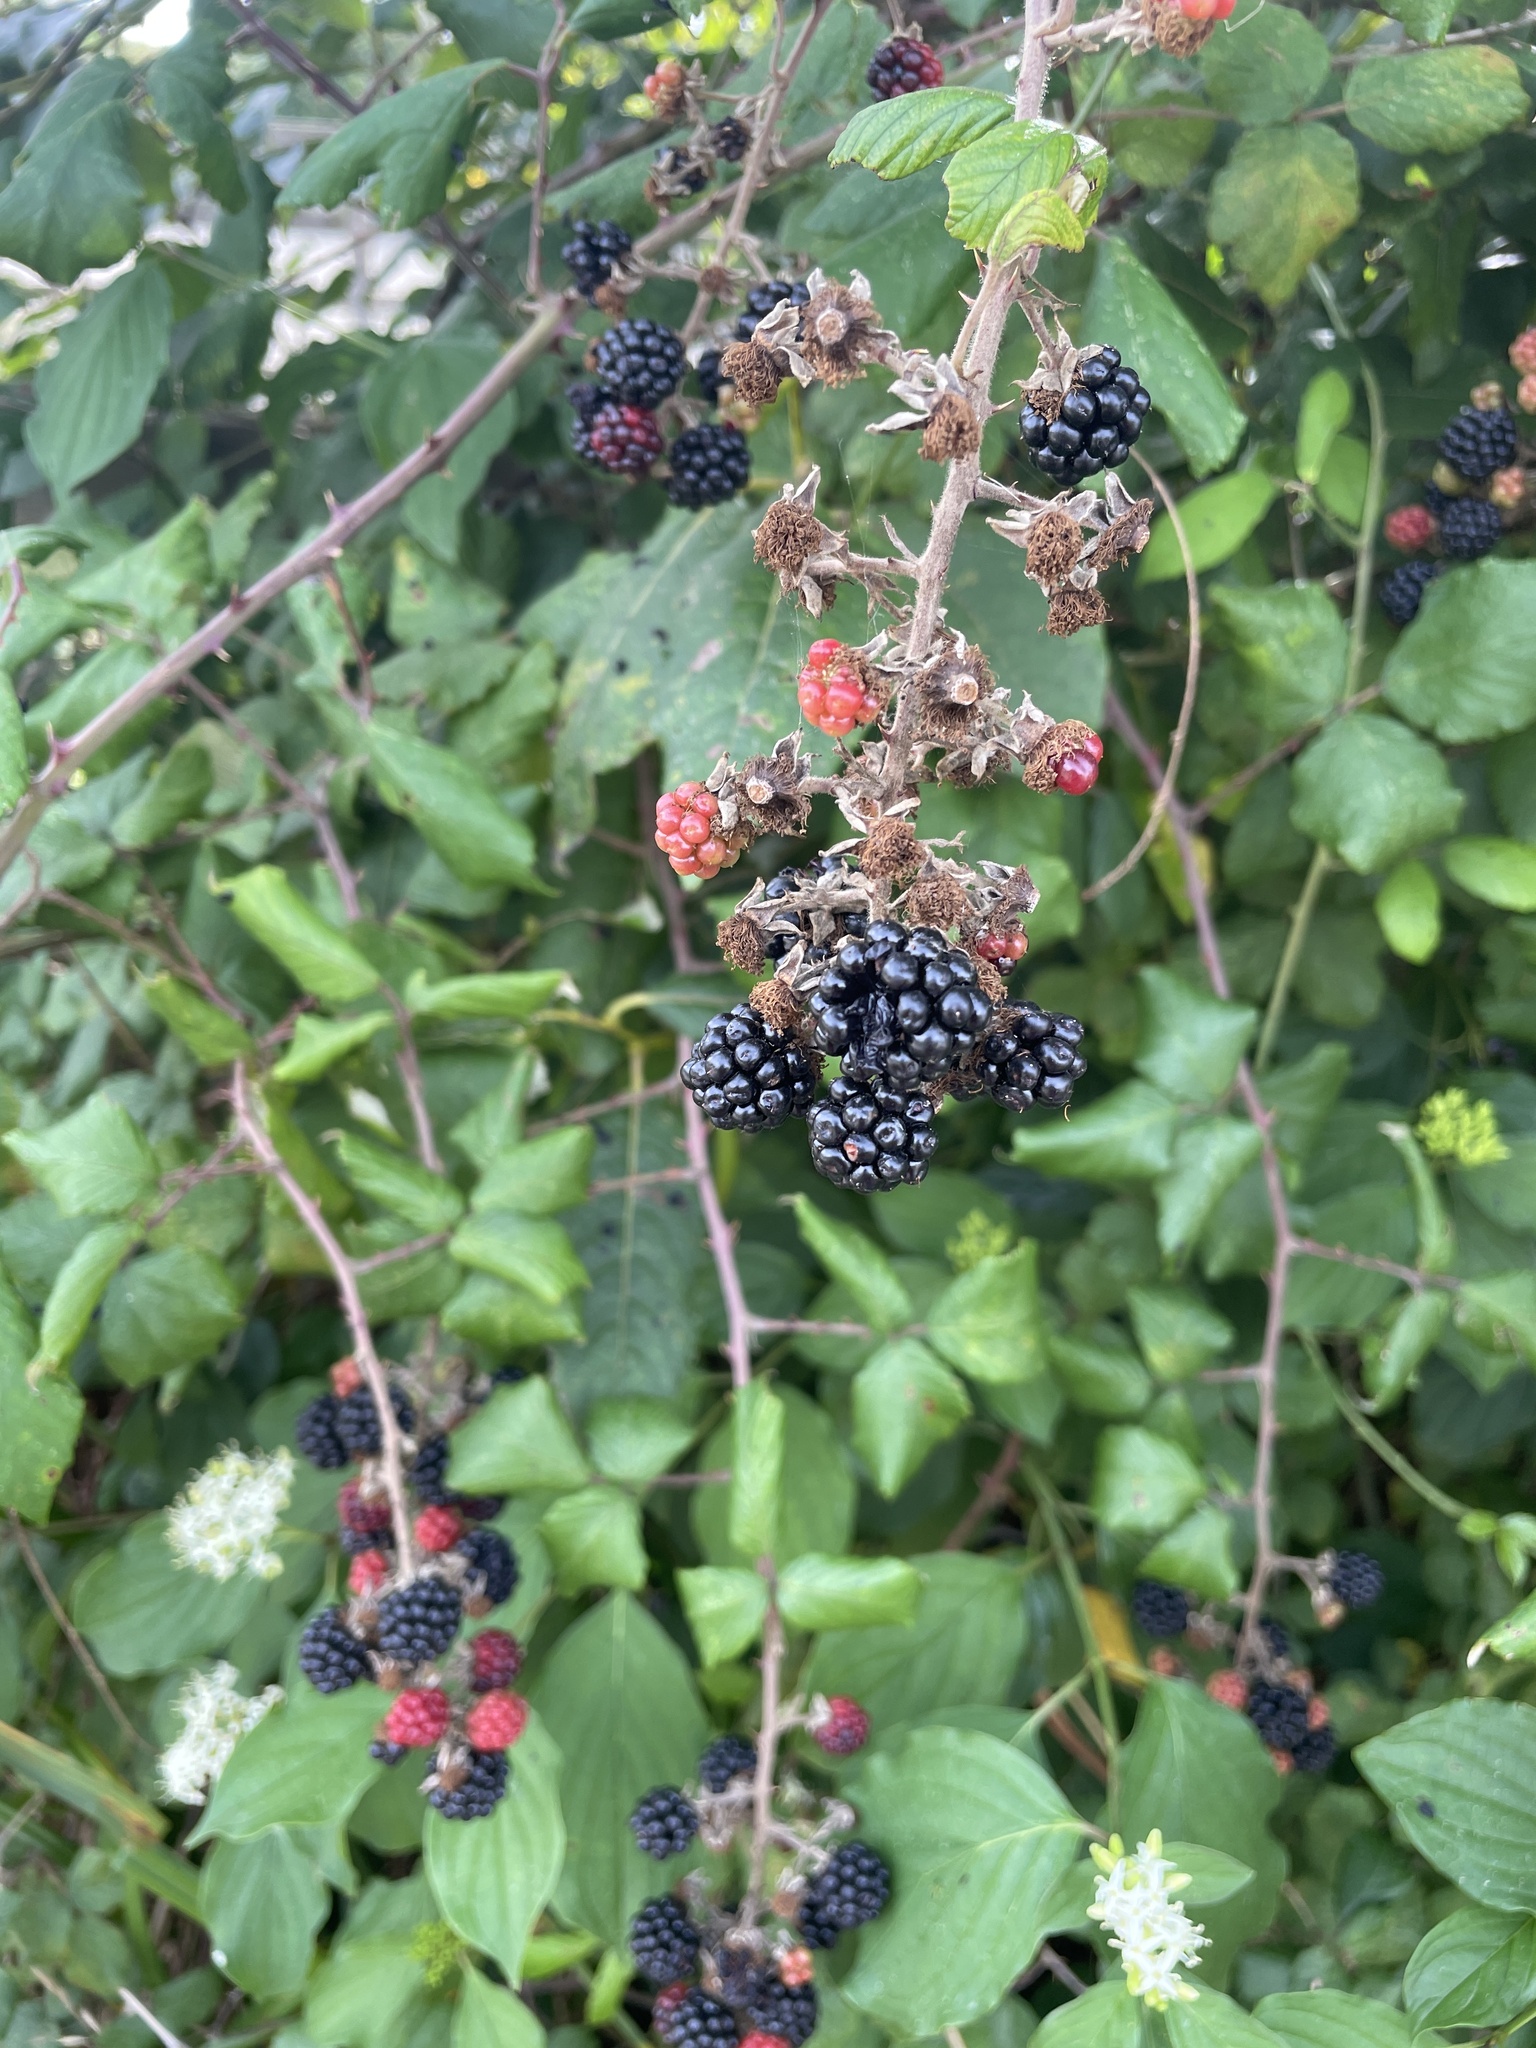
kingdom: Plantae
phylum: Tracheophyta
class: Magnoliopsida
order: Rosales
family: Rosaceae
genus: Rubus
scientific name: Rubus fruticosus
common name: Blackberry, bramble
